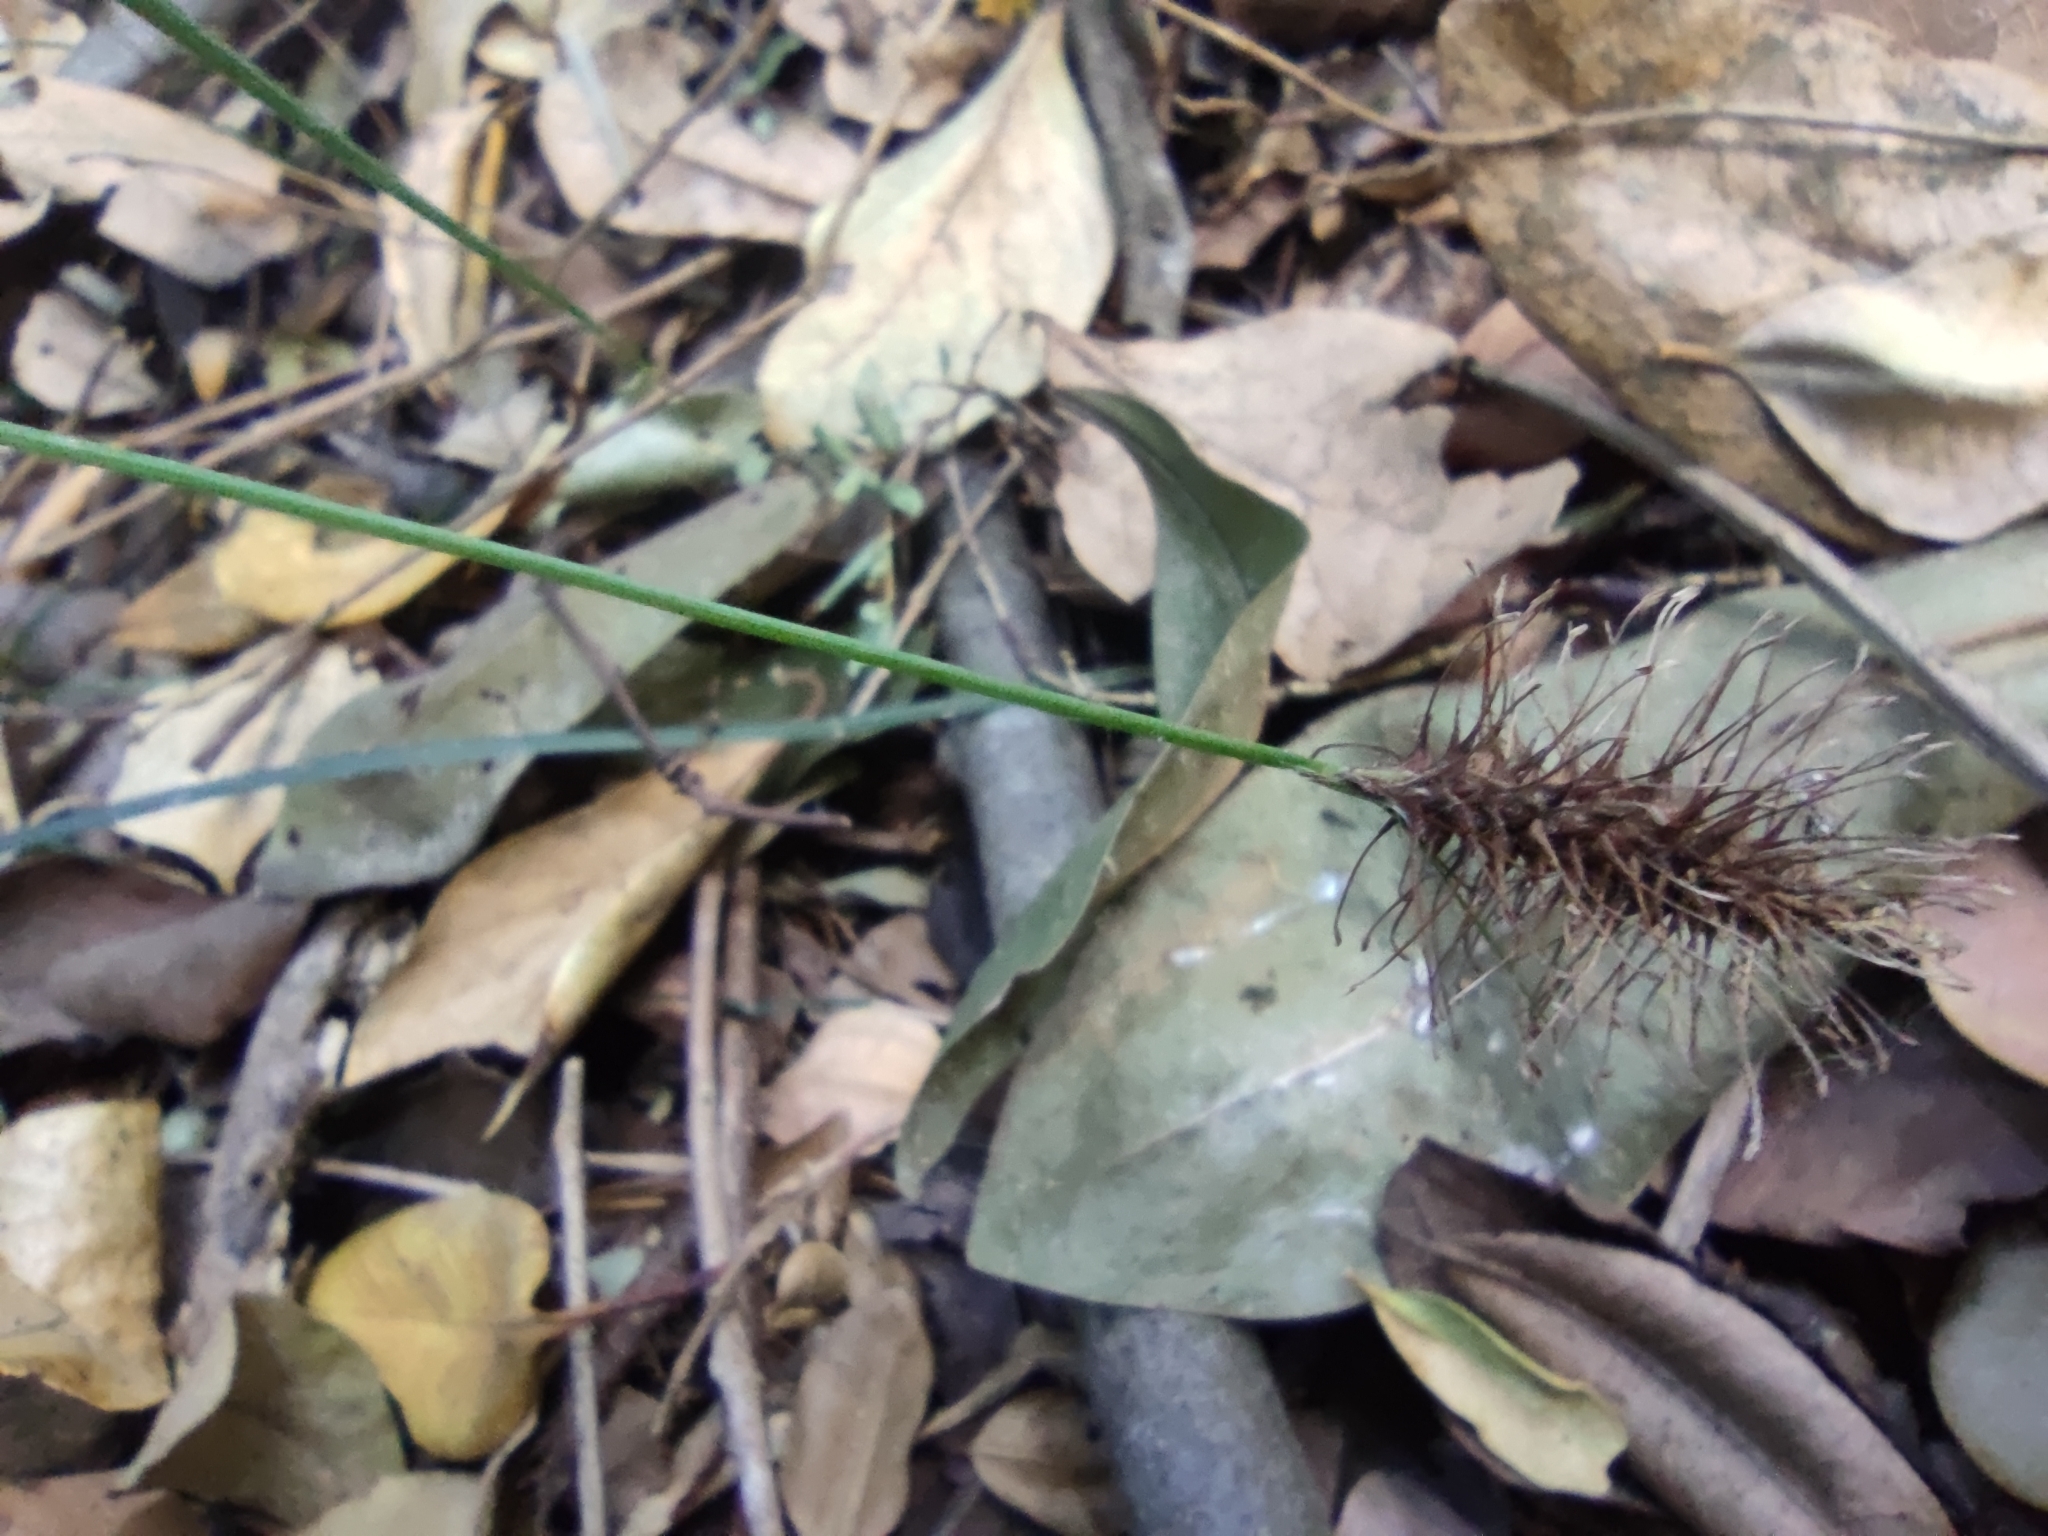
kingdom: Plantae
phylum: Tracheophyta
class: Liliopsida
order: Poales
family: Cyperaceae
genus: Carex
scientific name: Carex erinacea
